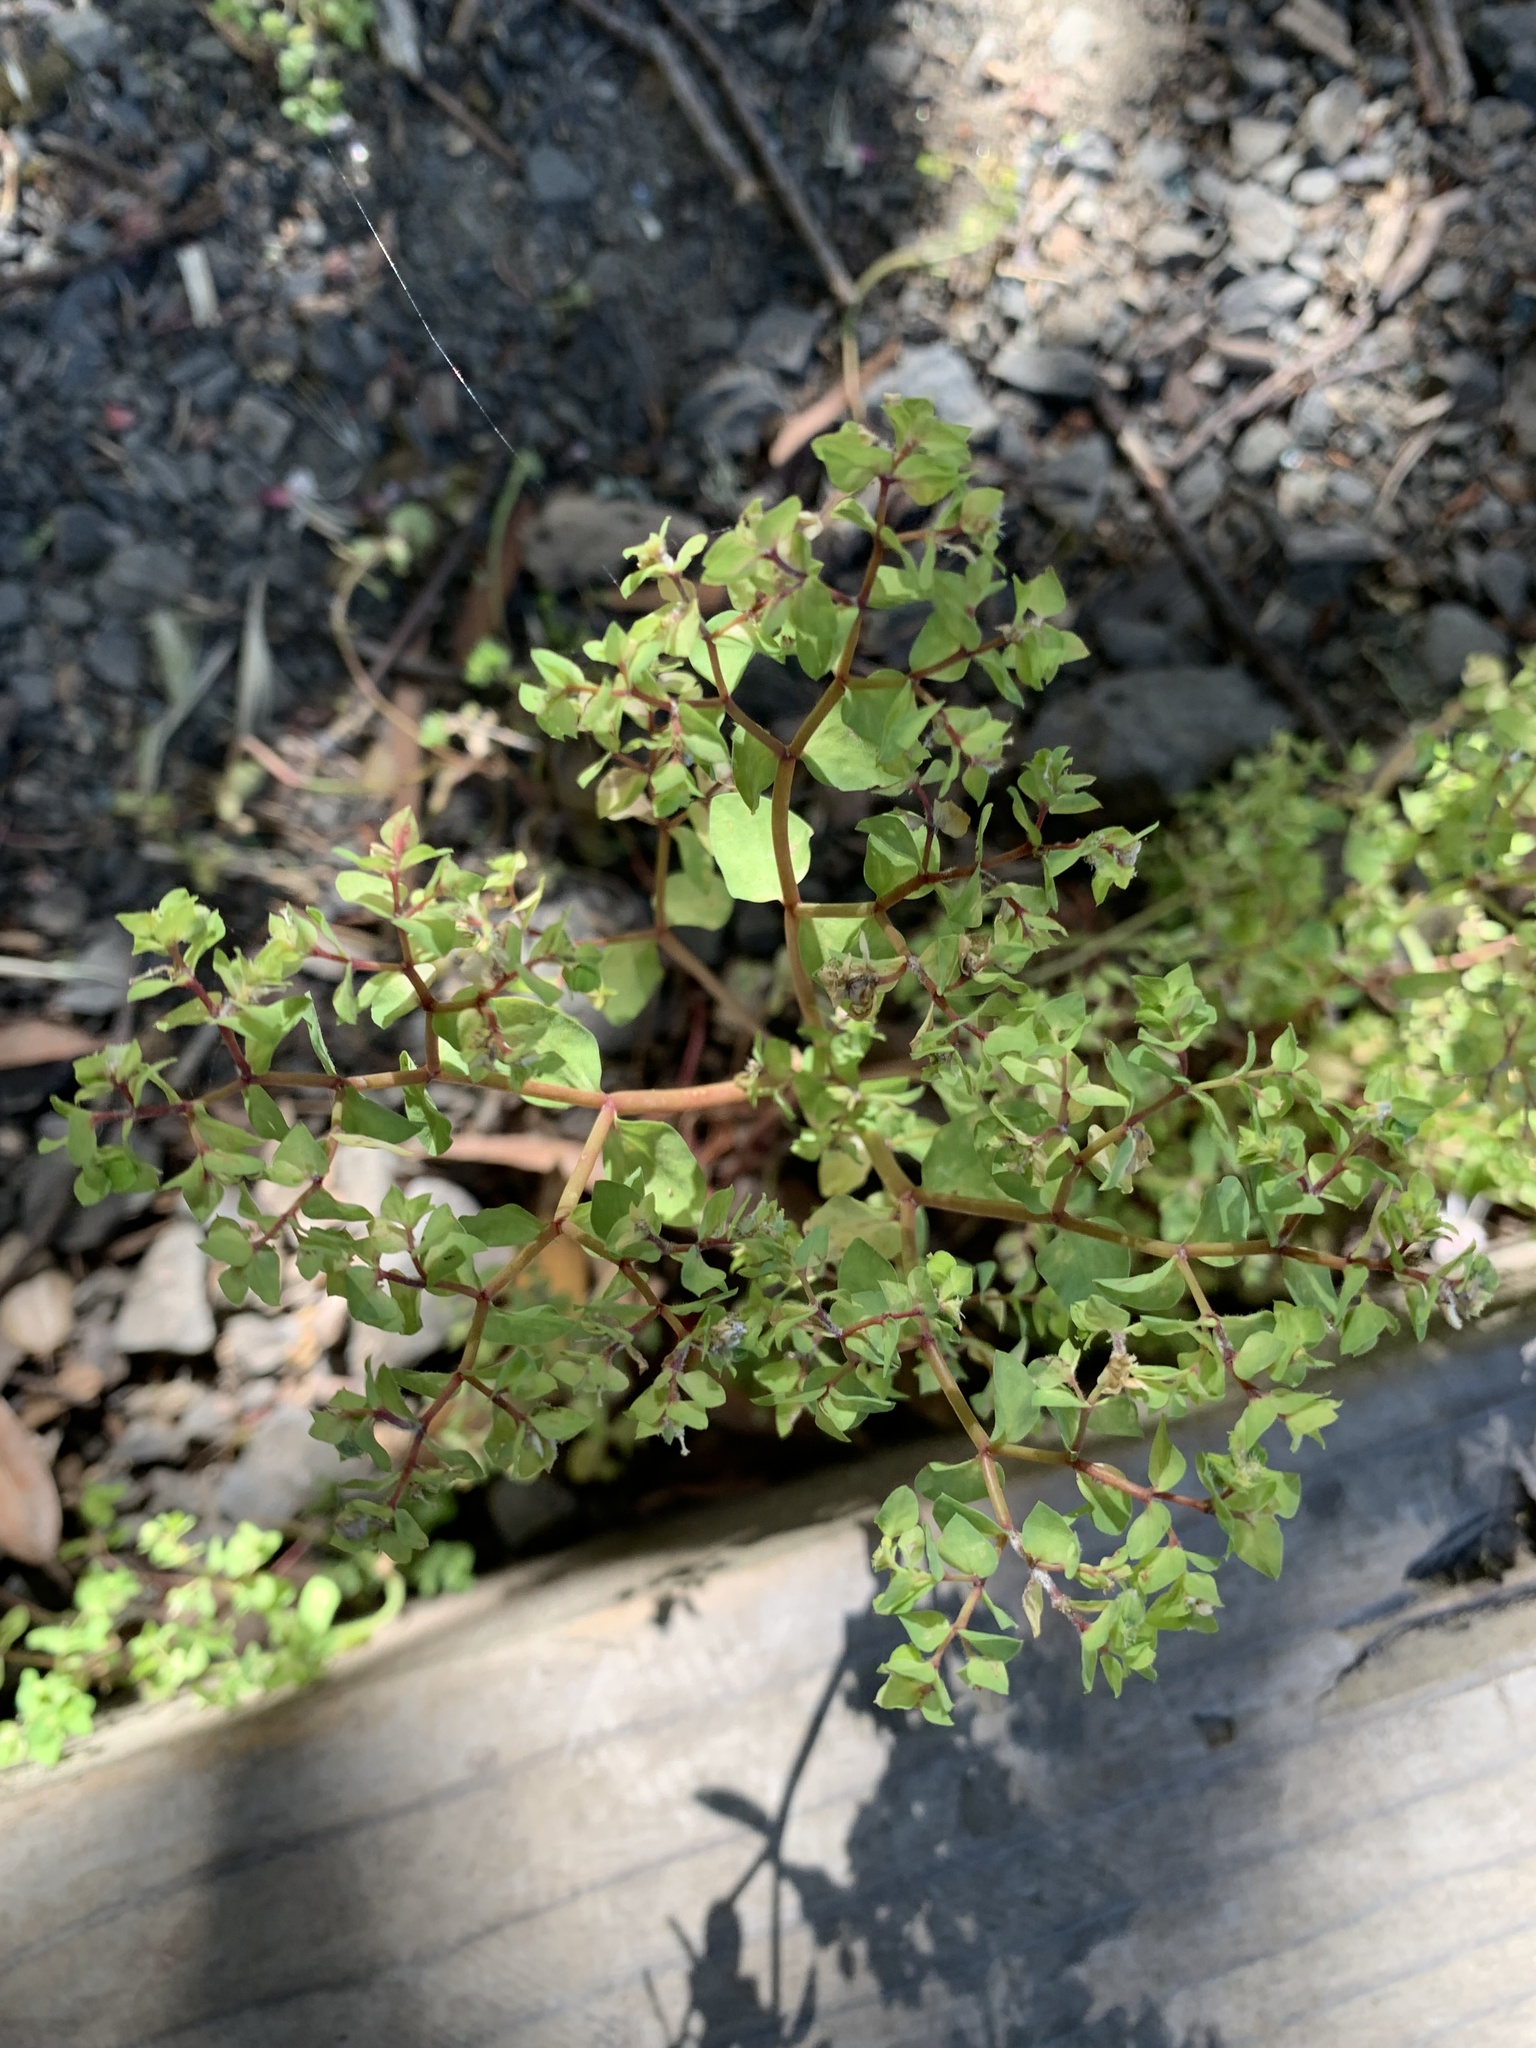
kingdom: Plantae
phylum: Tracheophyta
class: Magnoliopsida
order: Malpighiales
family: Euphorbiaceae
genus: Euphorbia
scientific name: Euphorbia peplus
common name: Petty spurge
